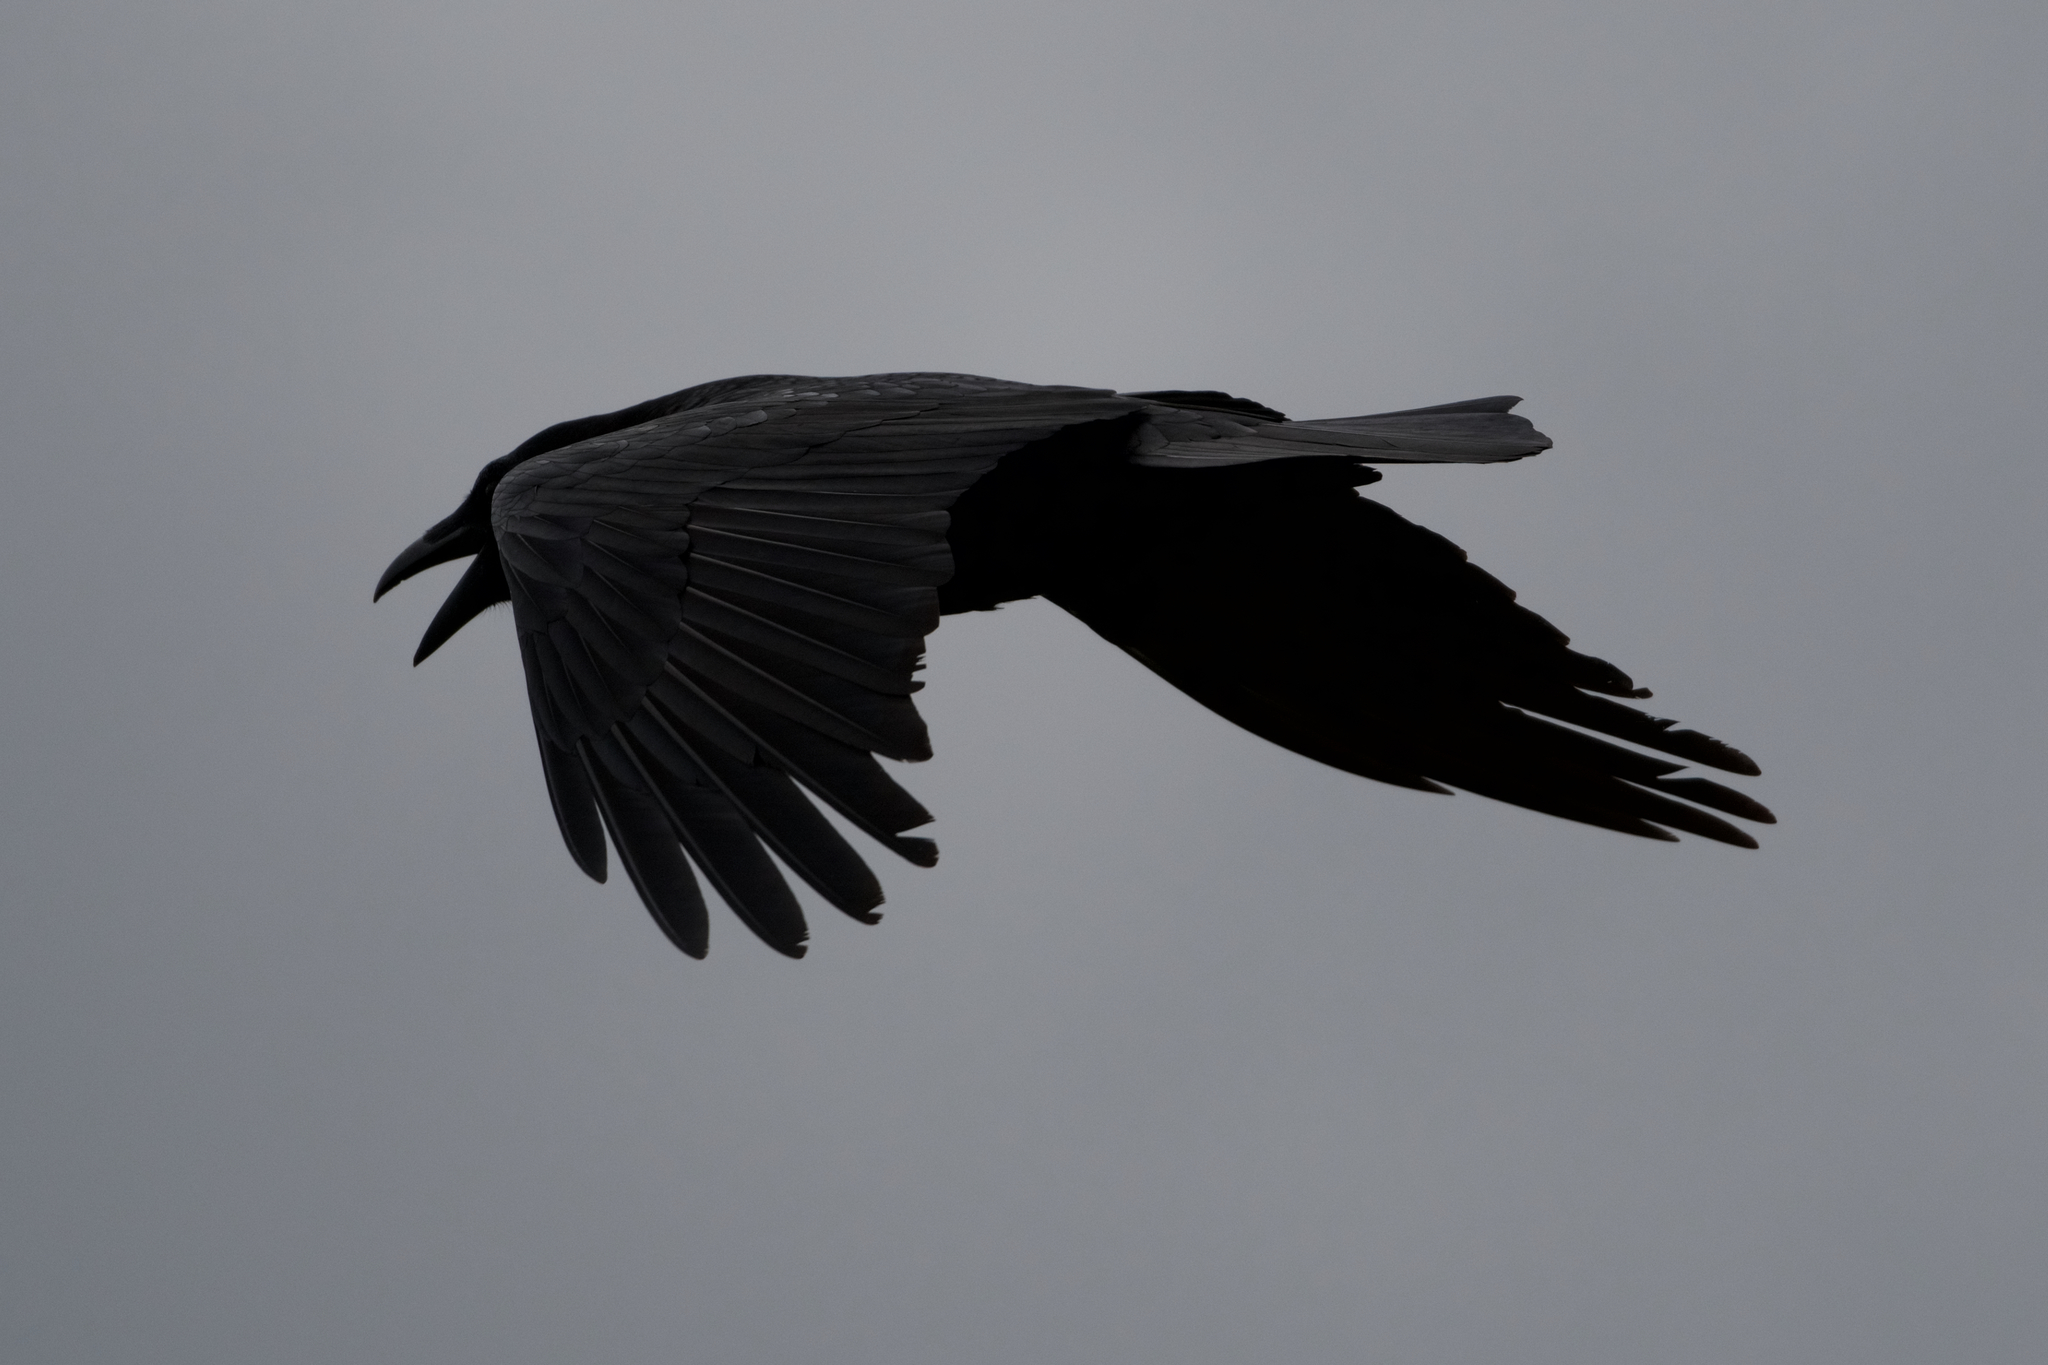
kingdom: Animalia
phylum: Chordata
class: Aves
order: Passeriformes
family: Corvidae
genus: Corvus
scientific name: Corvus brachyrhynchos
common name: American crow
